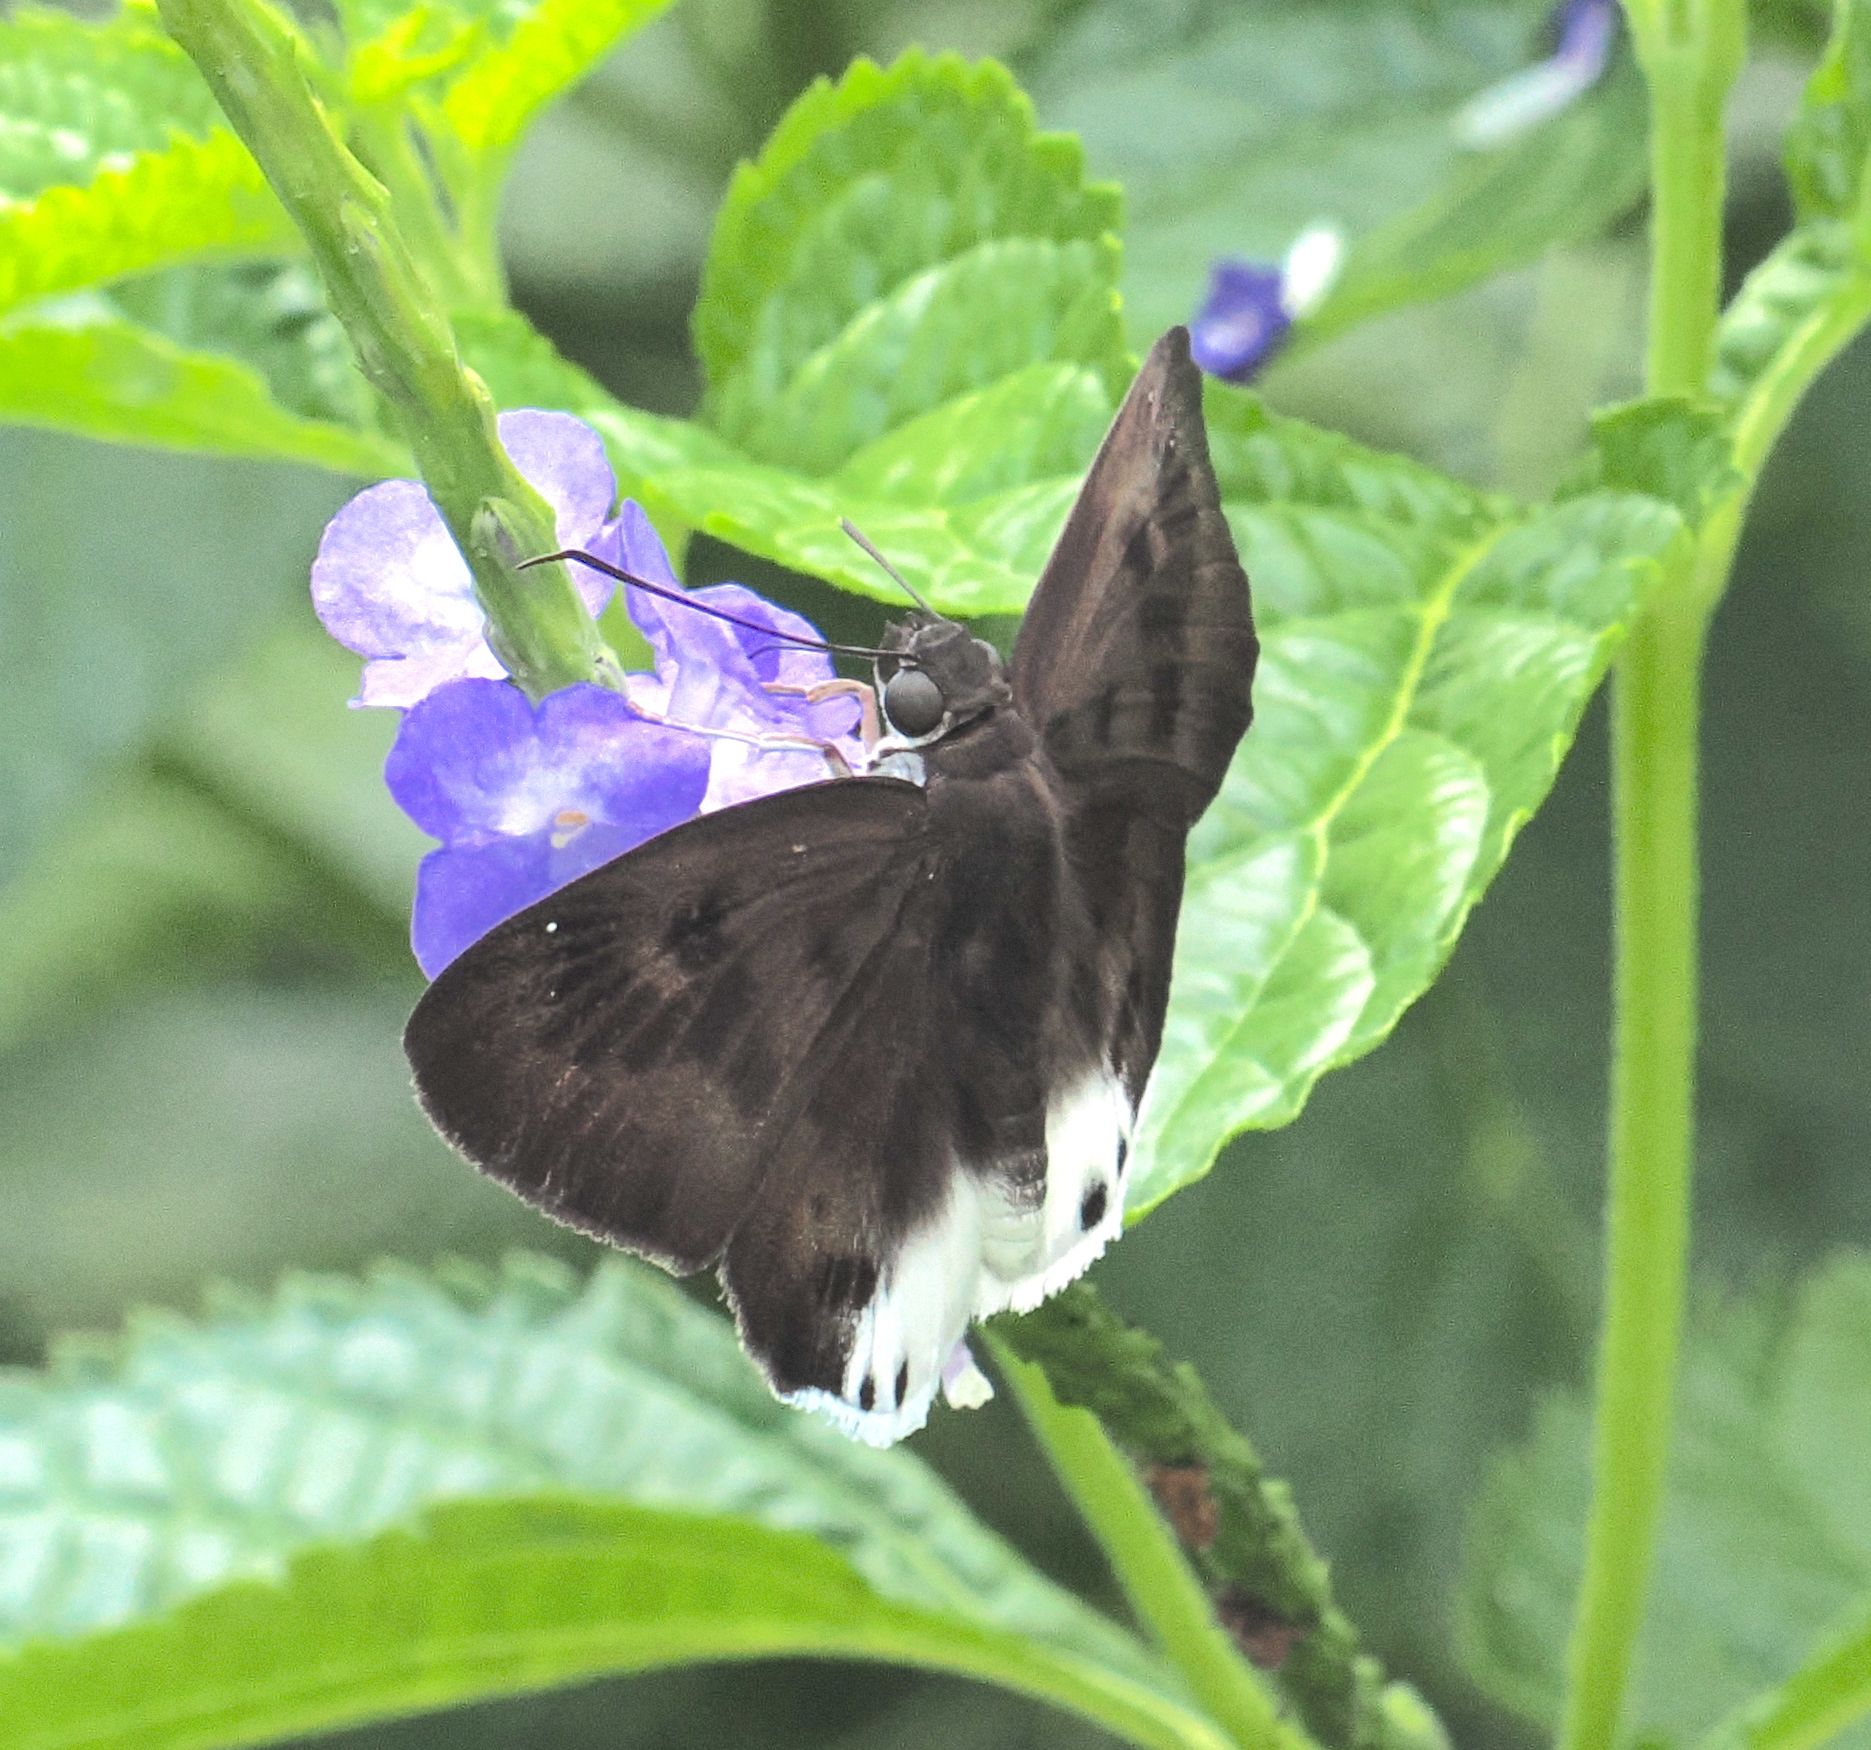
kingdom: Animalia
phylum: Arthropoda
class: Insecta
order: Lepidoptera
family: Hesperiidae
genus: Tagiades
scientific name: Tagiades gana
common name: Suffused snow flat
